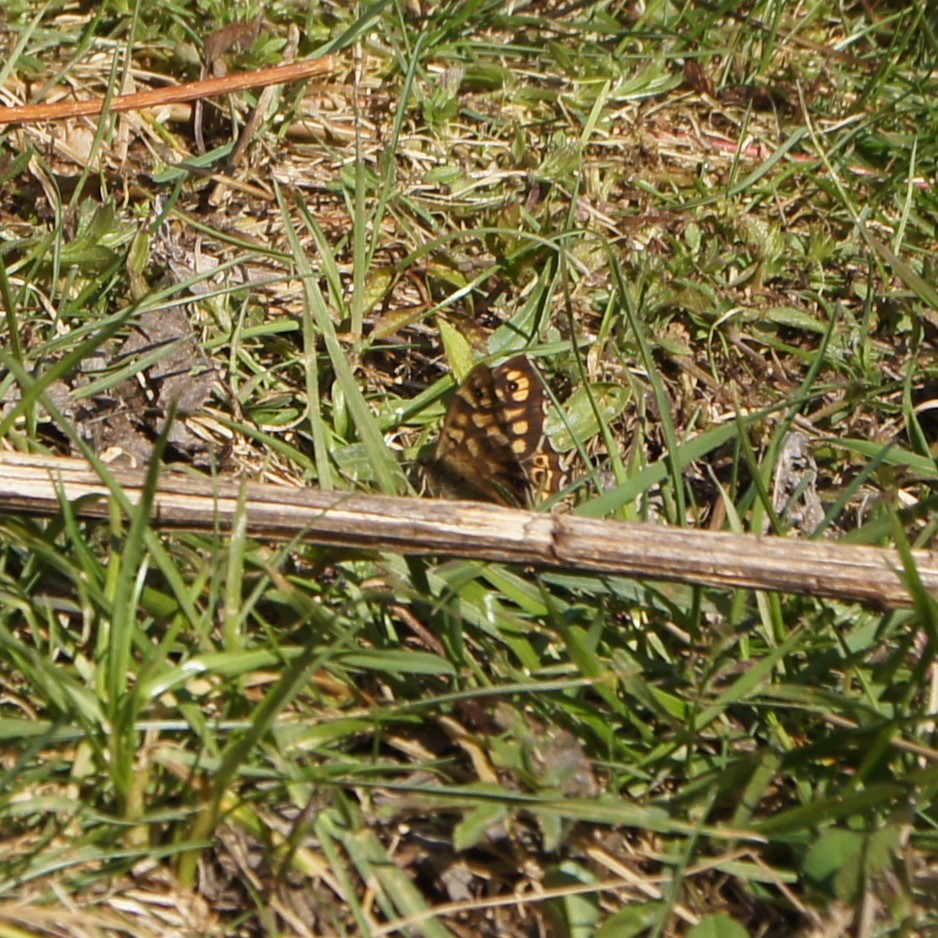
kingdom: Animalia
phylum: Arthropoda
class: Insecta
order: Lepidoptera
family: Nymphalidae
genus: Pararge
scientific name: Pararge aegeria
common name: Speckled wood
